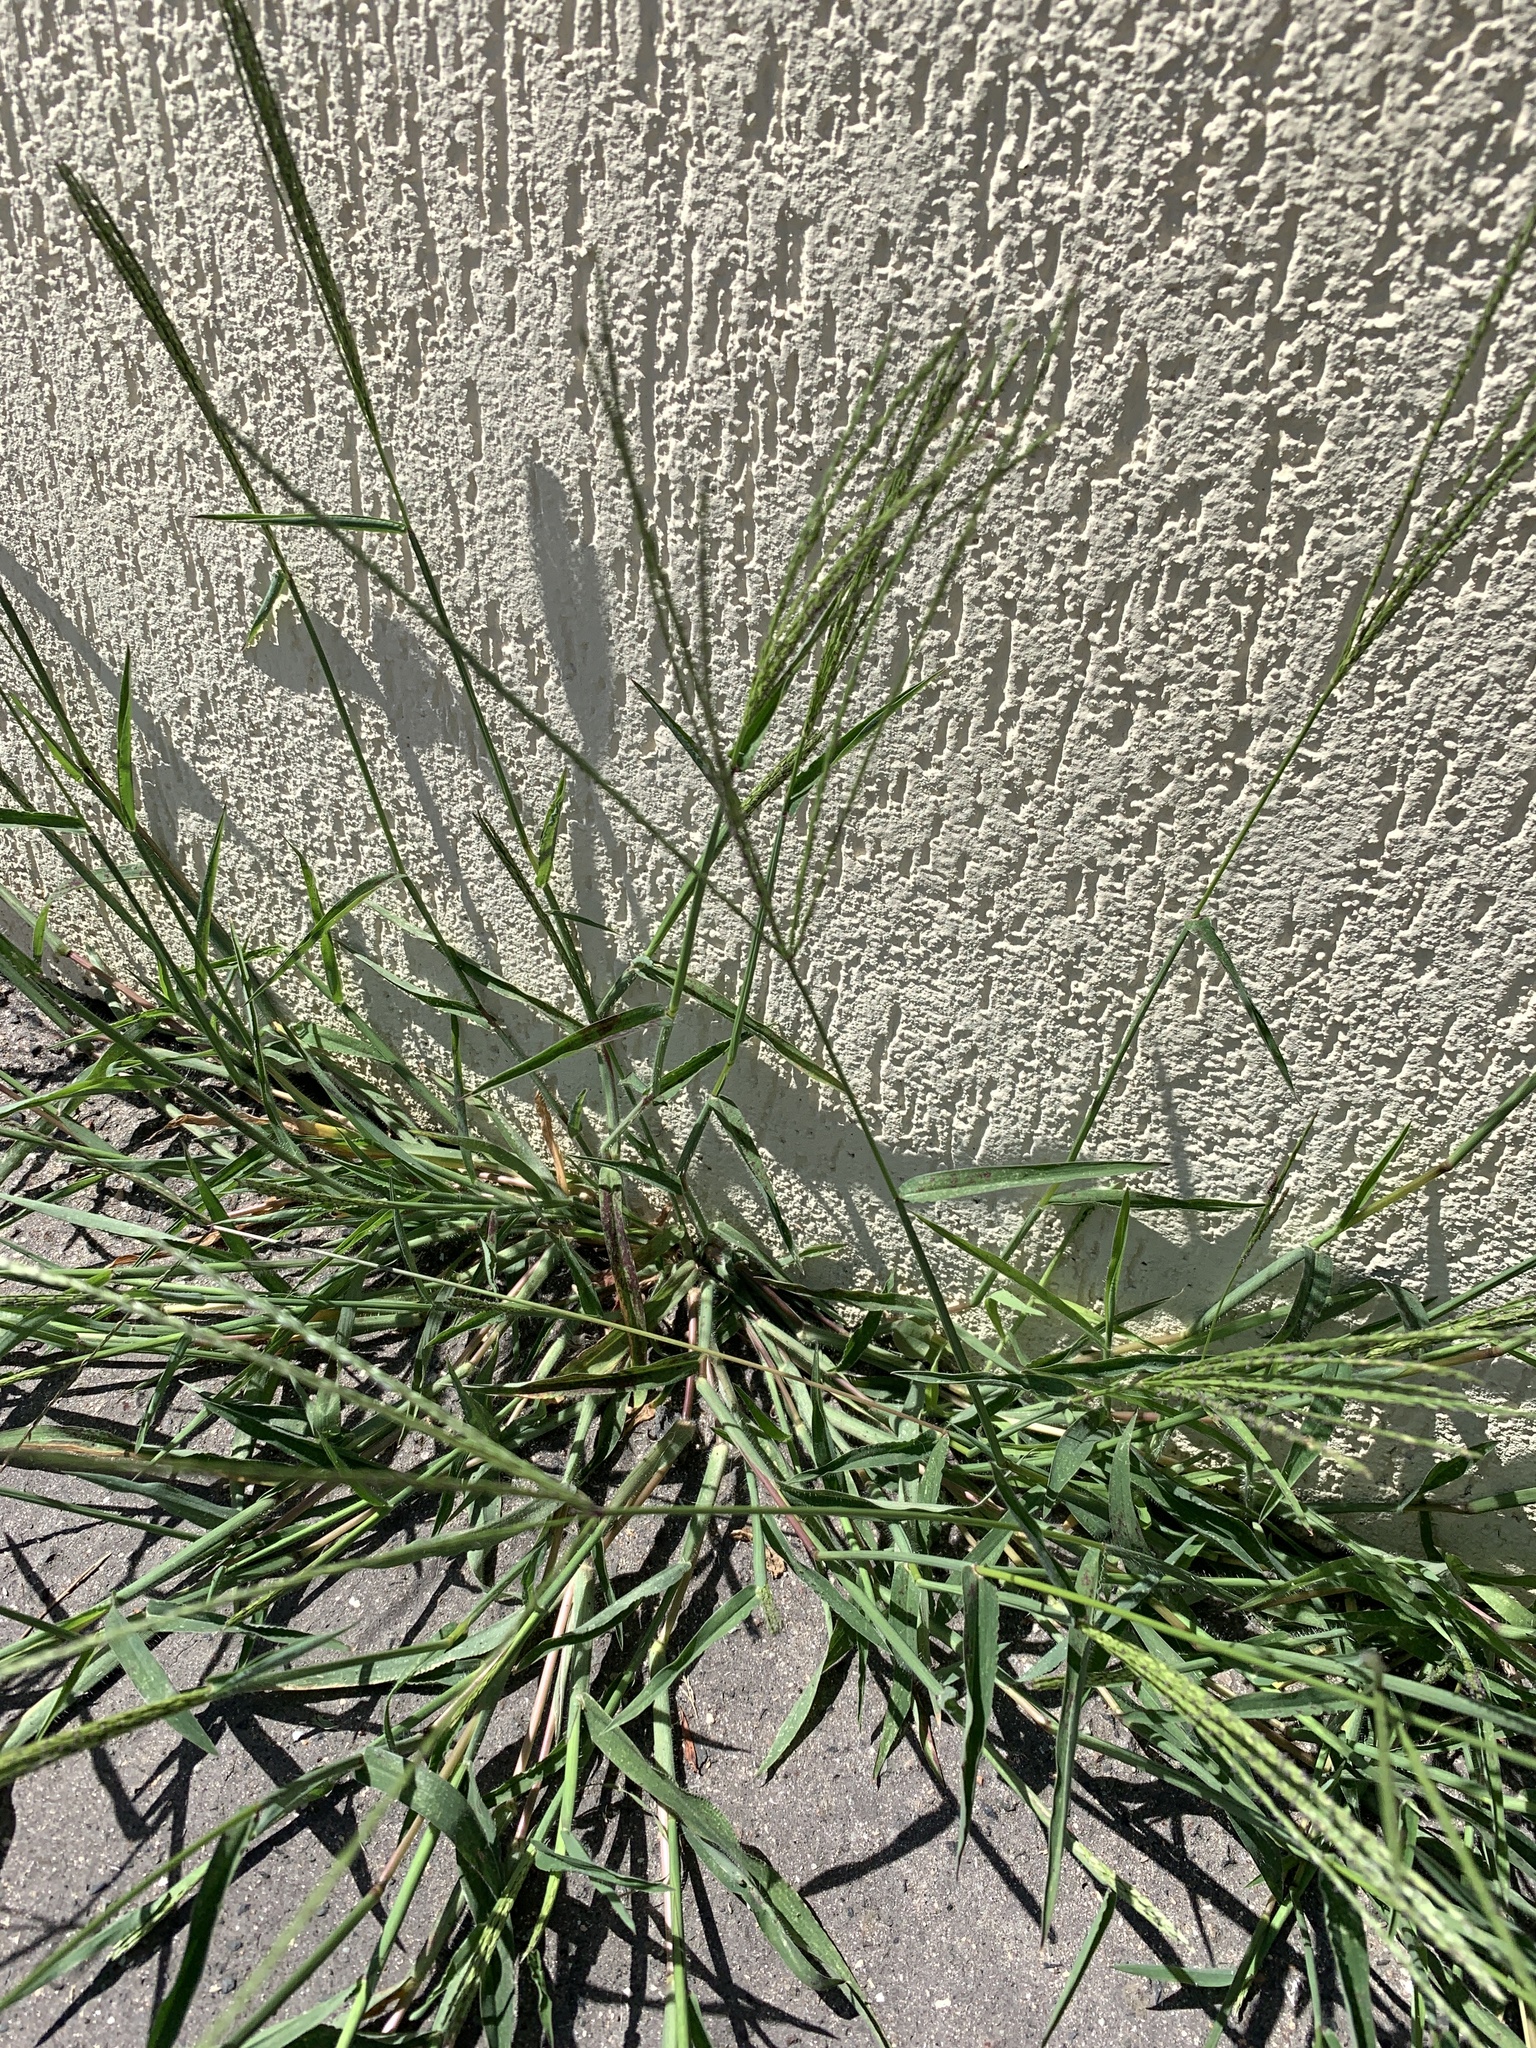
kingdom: Plantae
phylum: Tracheophyta
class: Liliopsida
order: Poales
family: Poaceae
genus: Digitaria
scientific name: Digitaria sanguinalis
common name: Hairy crabgrass
